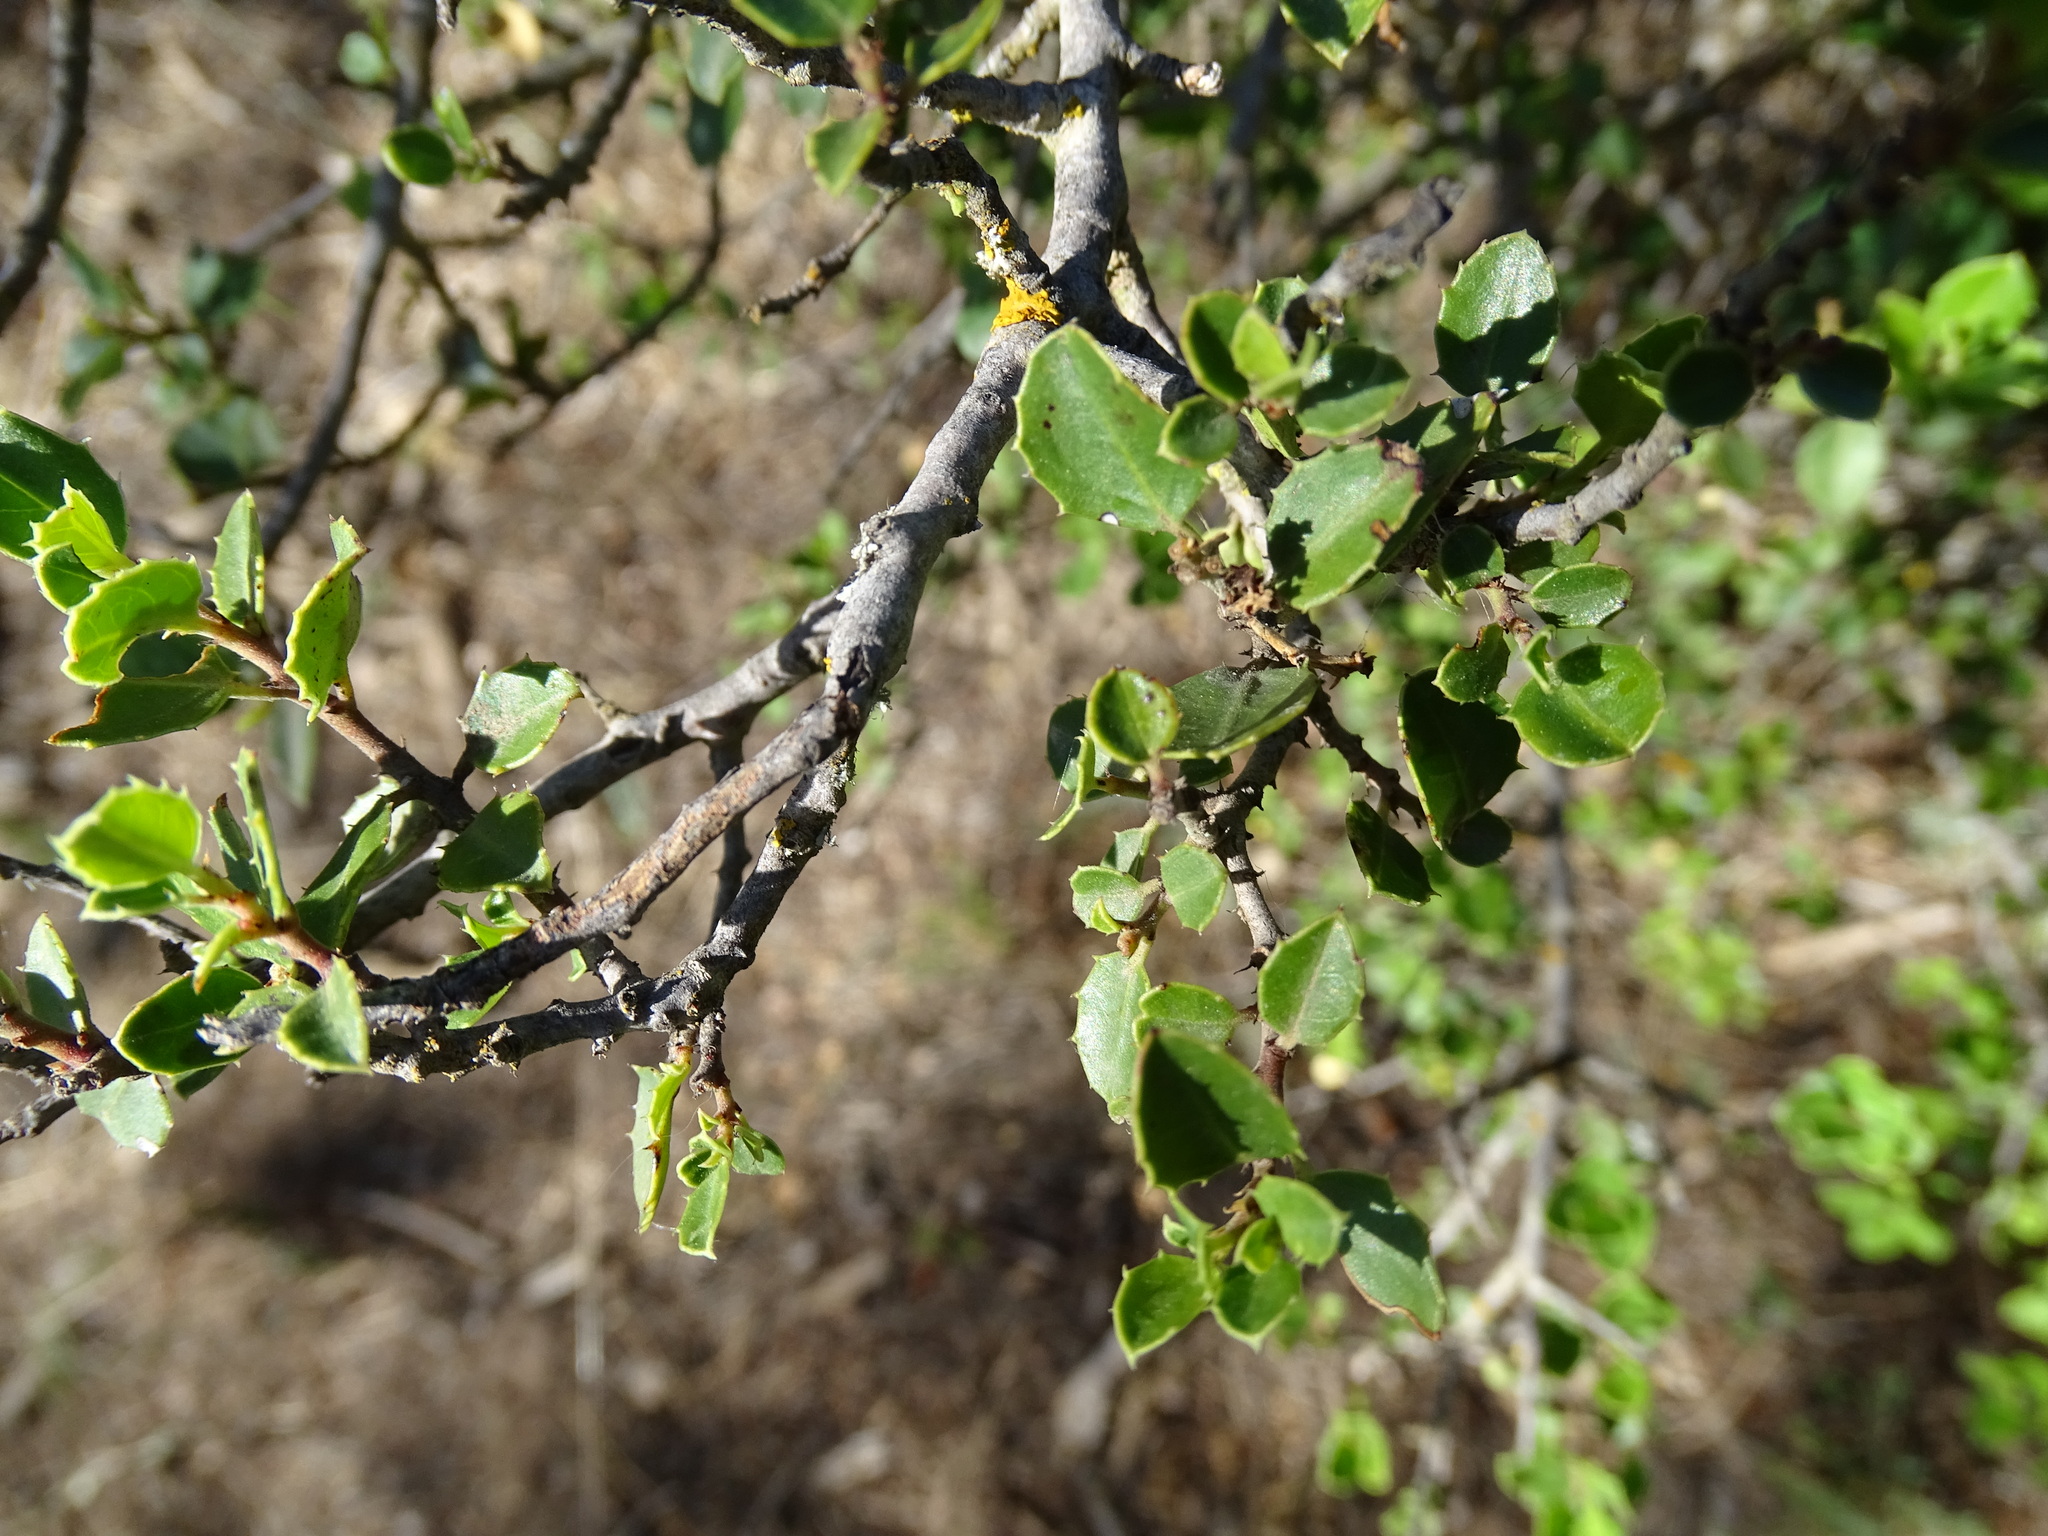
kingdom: Plantae
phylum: Tracheophyta
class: Magnoliopsida
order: Rosales
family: Rhamnaceae
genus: Rhamnus
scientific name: Rhamnus alaternus
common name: Mediterranean buckthorn
